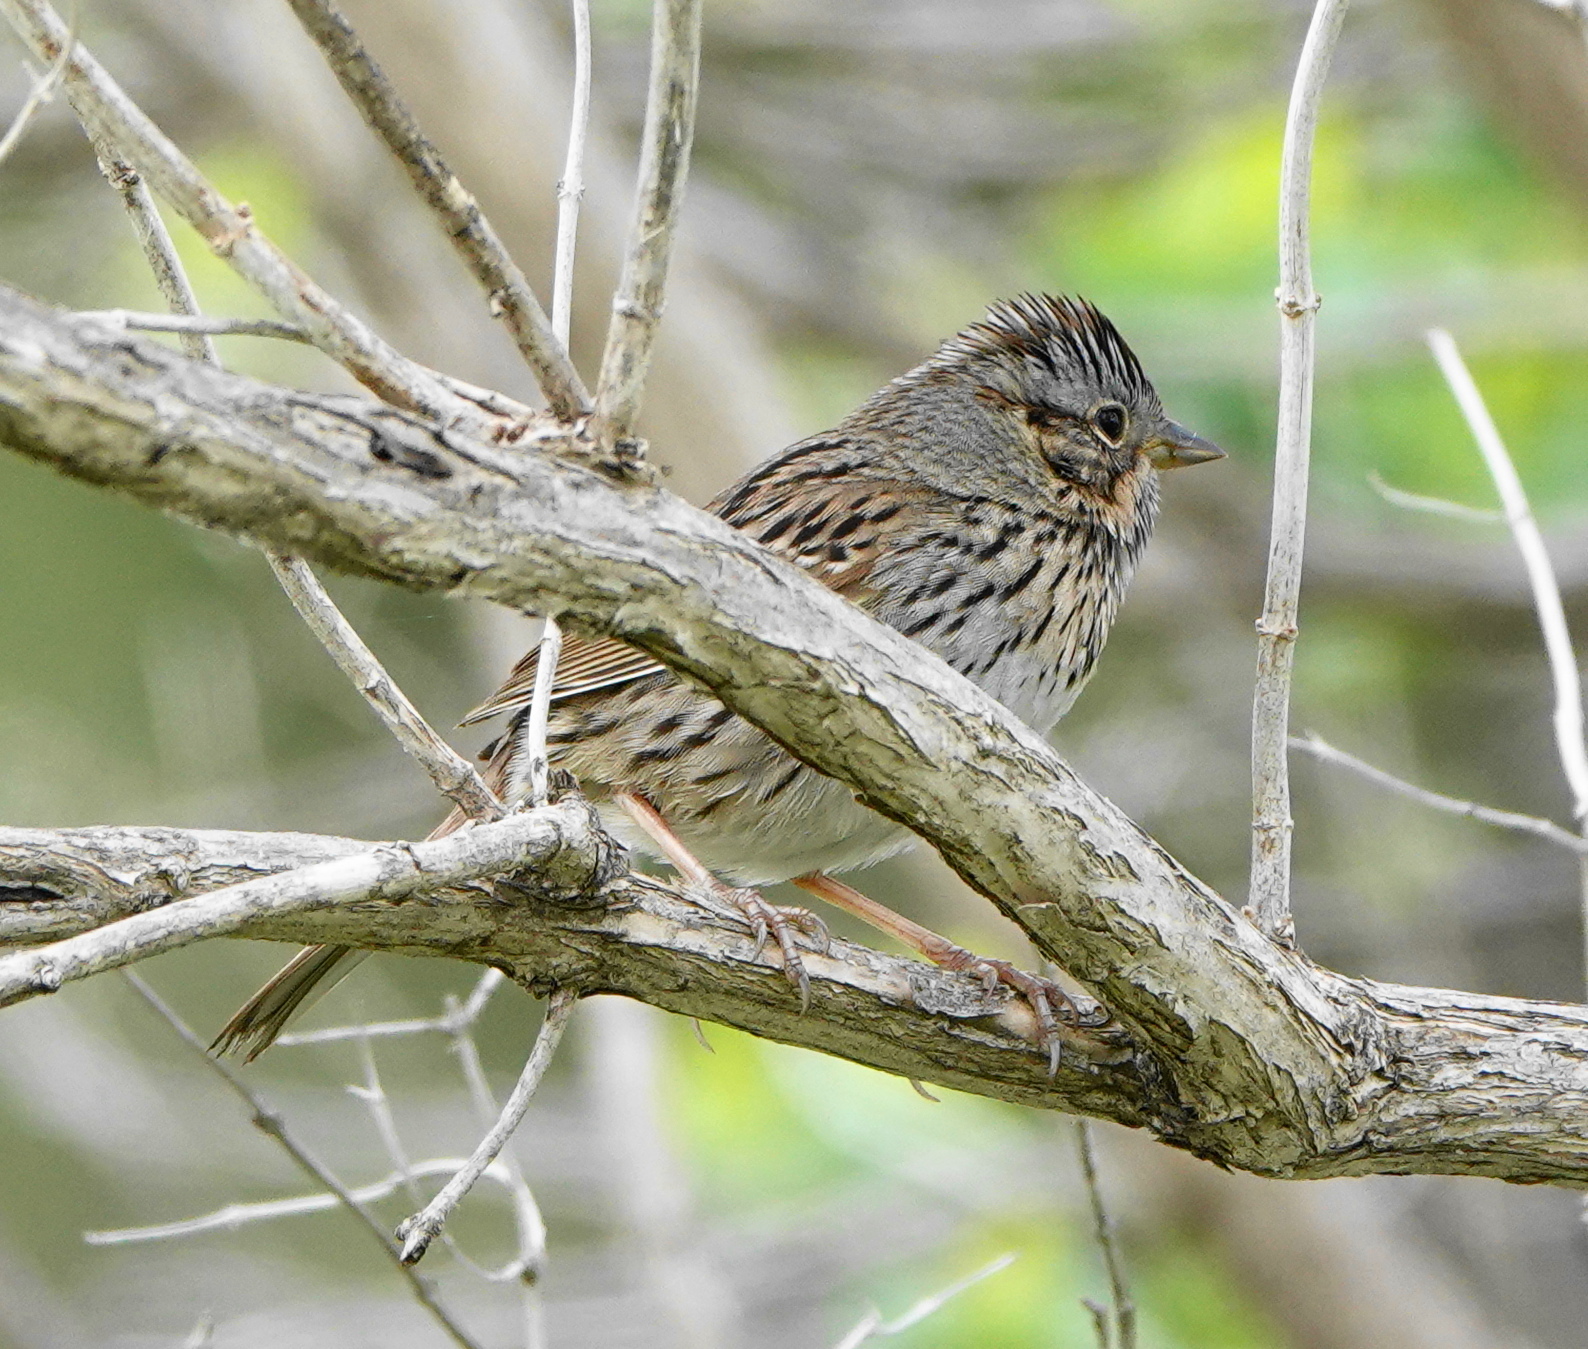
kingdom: Animalia
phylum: Chordata
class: Aves
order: Passeriformes
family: Passerellidae
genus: Melospiza
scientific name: Melospiza lincolnii
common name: Lincoln's sparrow
